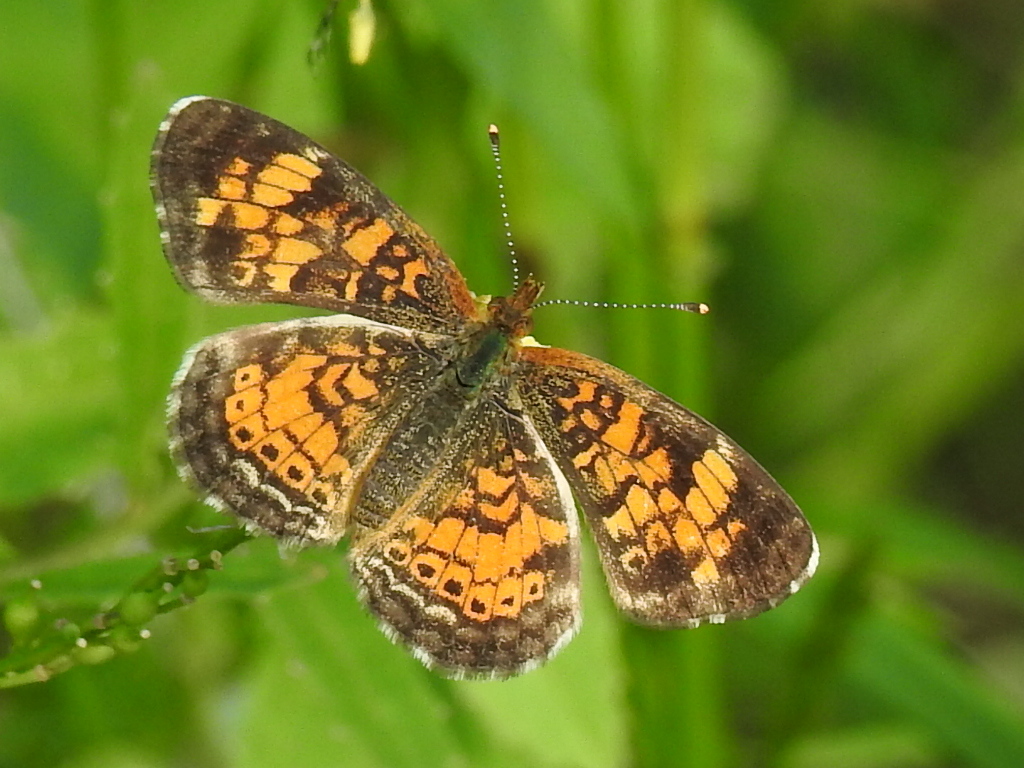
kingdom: Animalia
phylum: Arthropoda
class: Insecta
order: Lepidoptera
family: Nymphalidae
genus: Phyciodes
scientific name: Phyciodes tharos
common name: Pearl crescent
